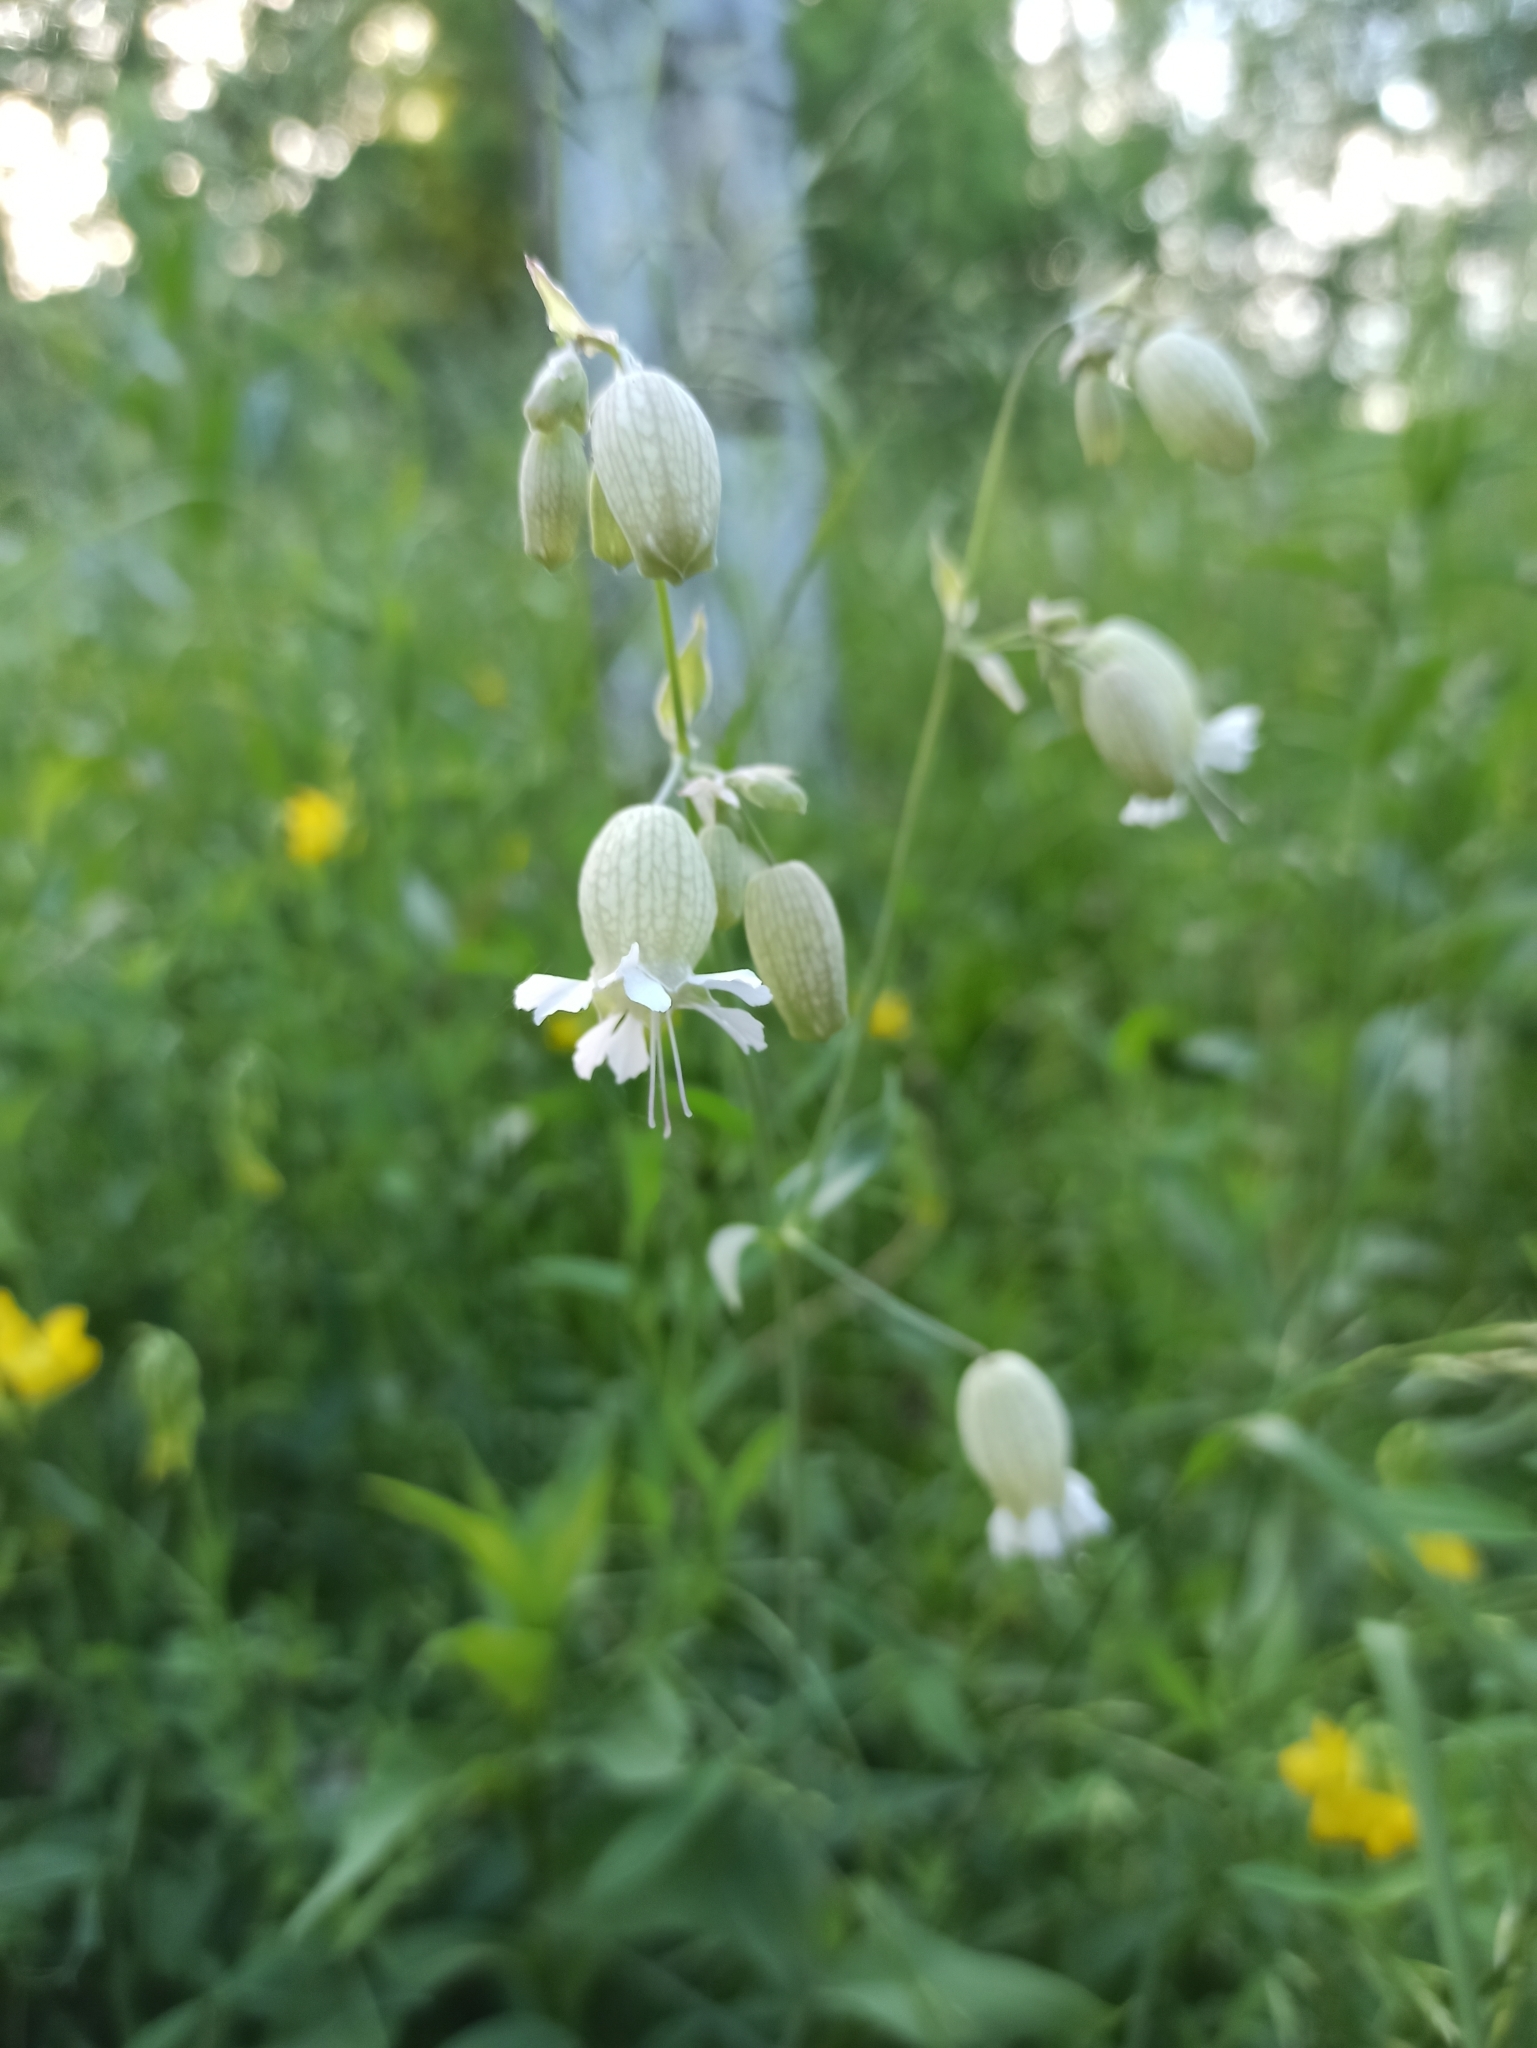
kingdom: Plantae
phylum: Tracheophyta
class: Magnoliopsida
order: Caryophyllales
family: Caryophyllaceae
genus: Silene
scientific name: Silene vulgaris
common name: Bladder campion
